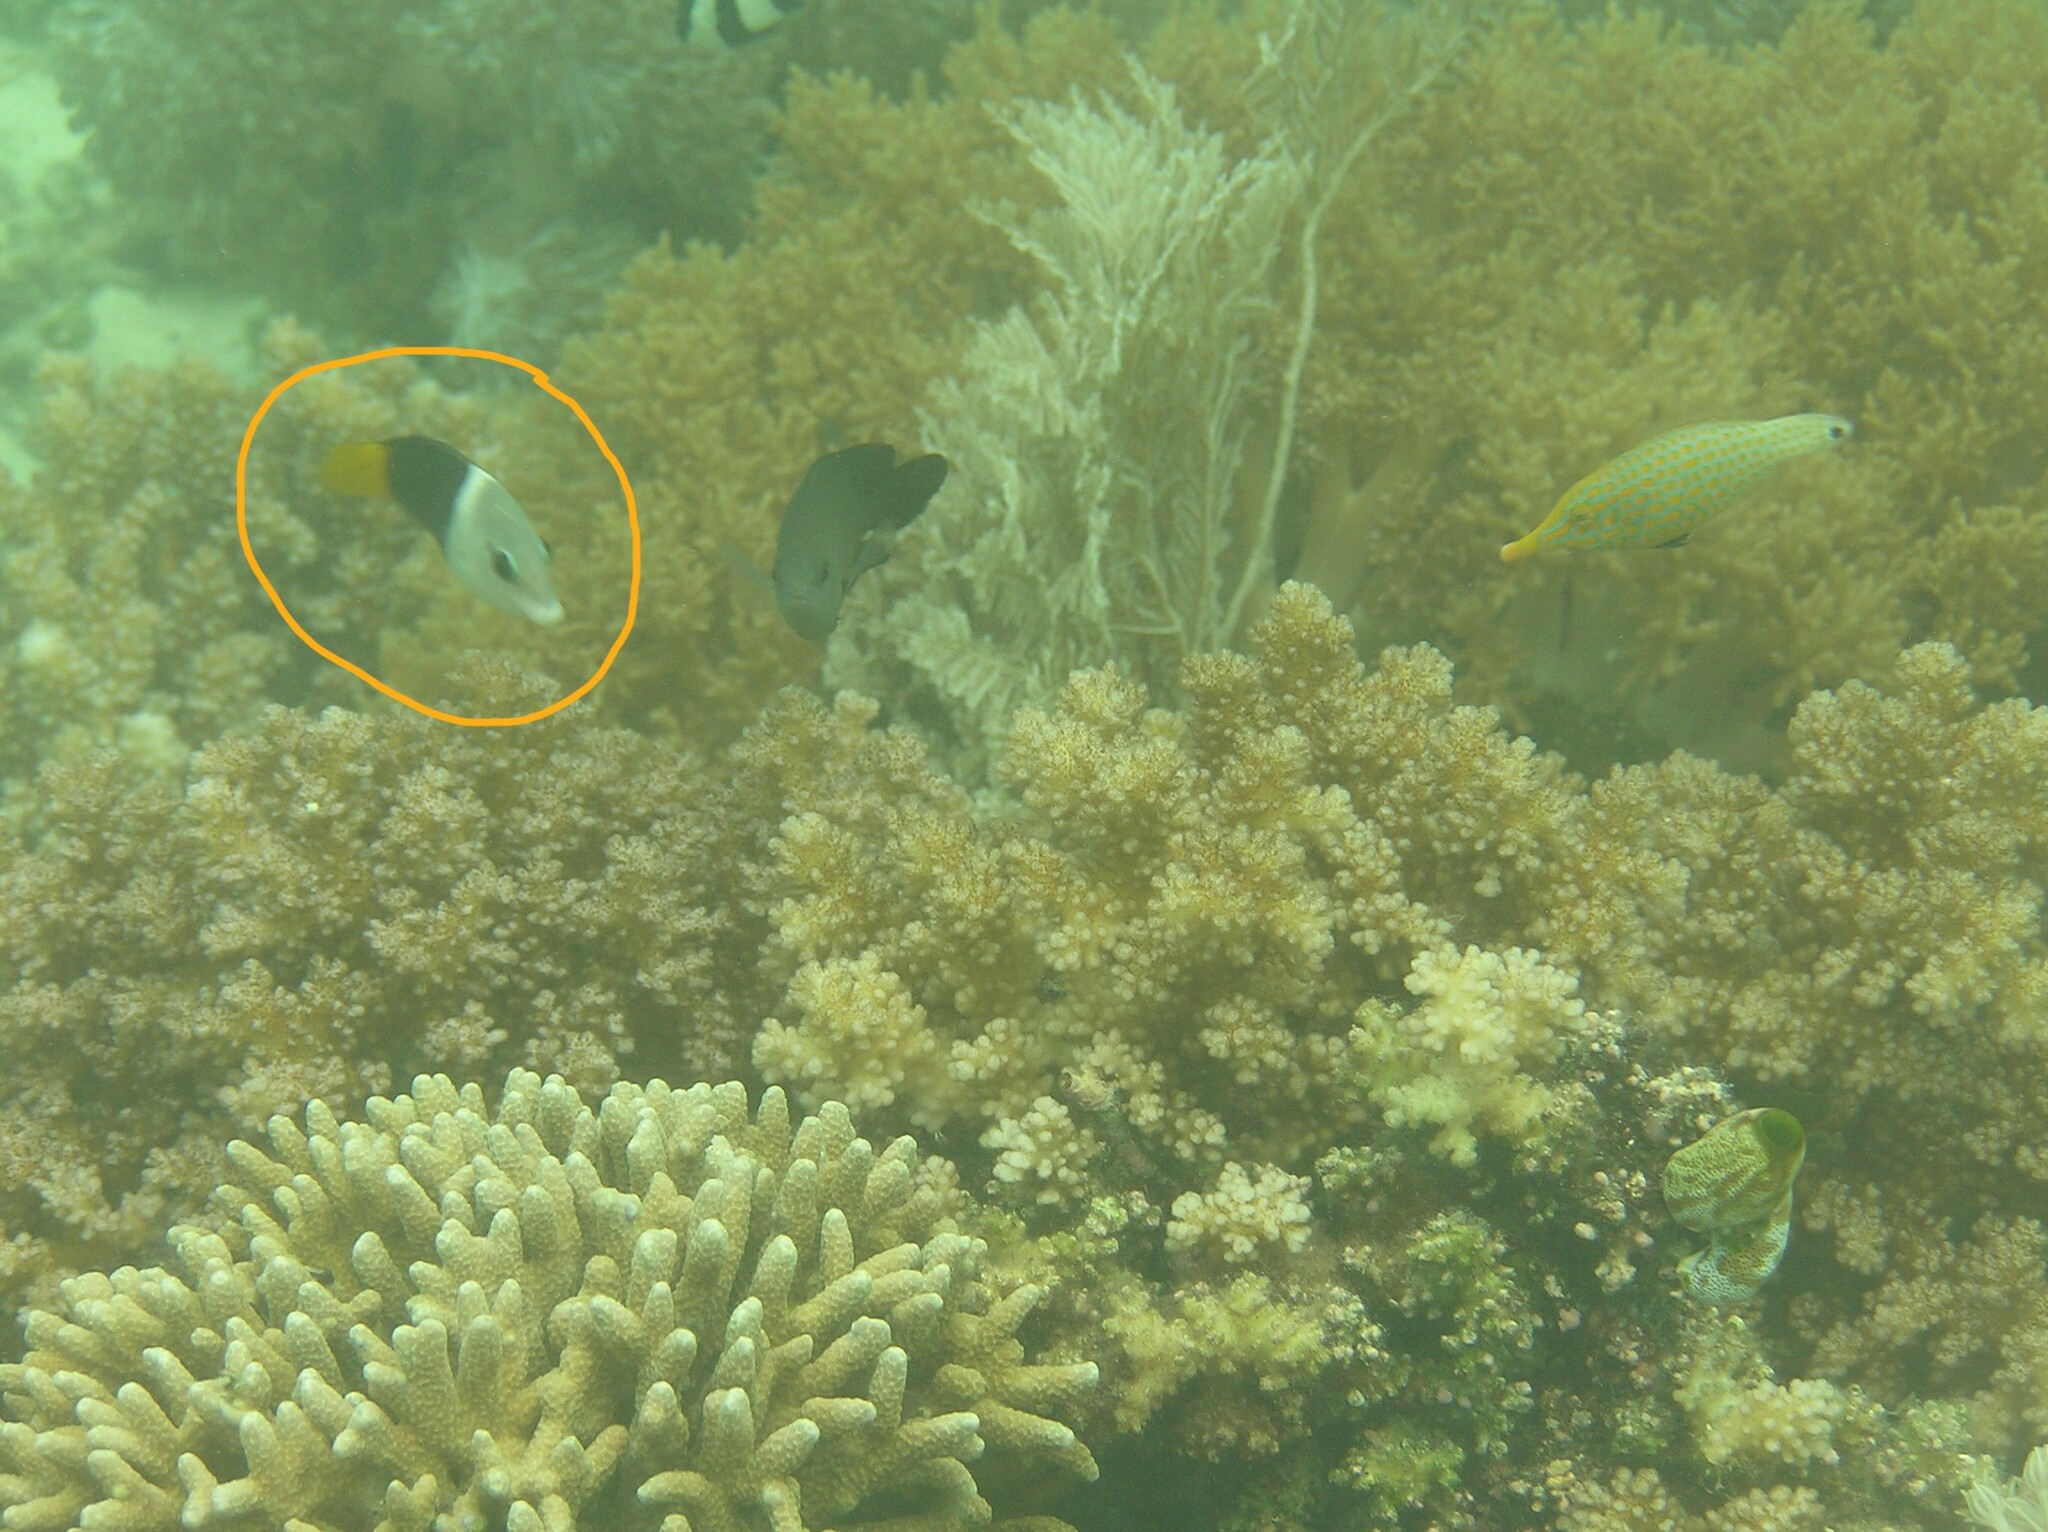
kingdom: Animalia
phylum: Chordata
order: Perciformes
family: Labridae
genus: Hemigymnus
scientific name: Hemigymnus melapterus
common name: Blackeye thicklip
